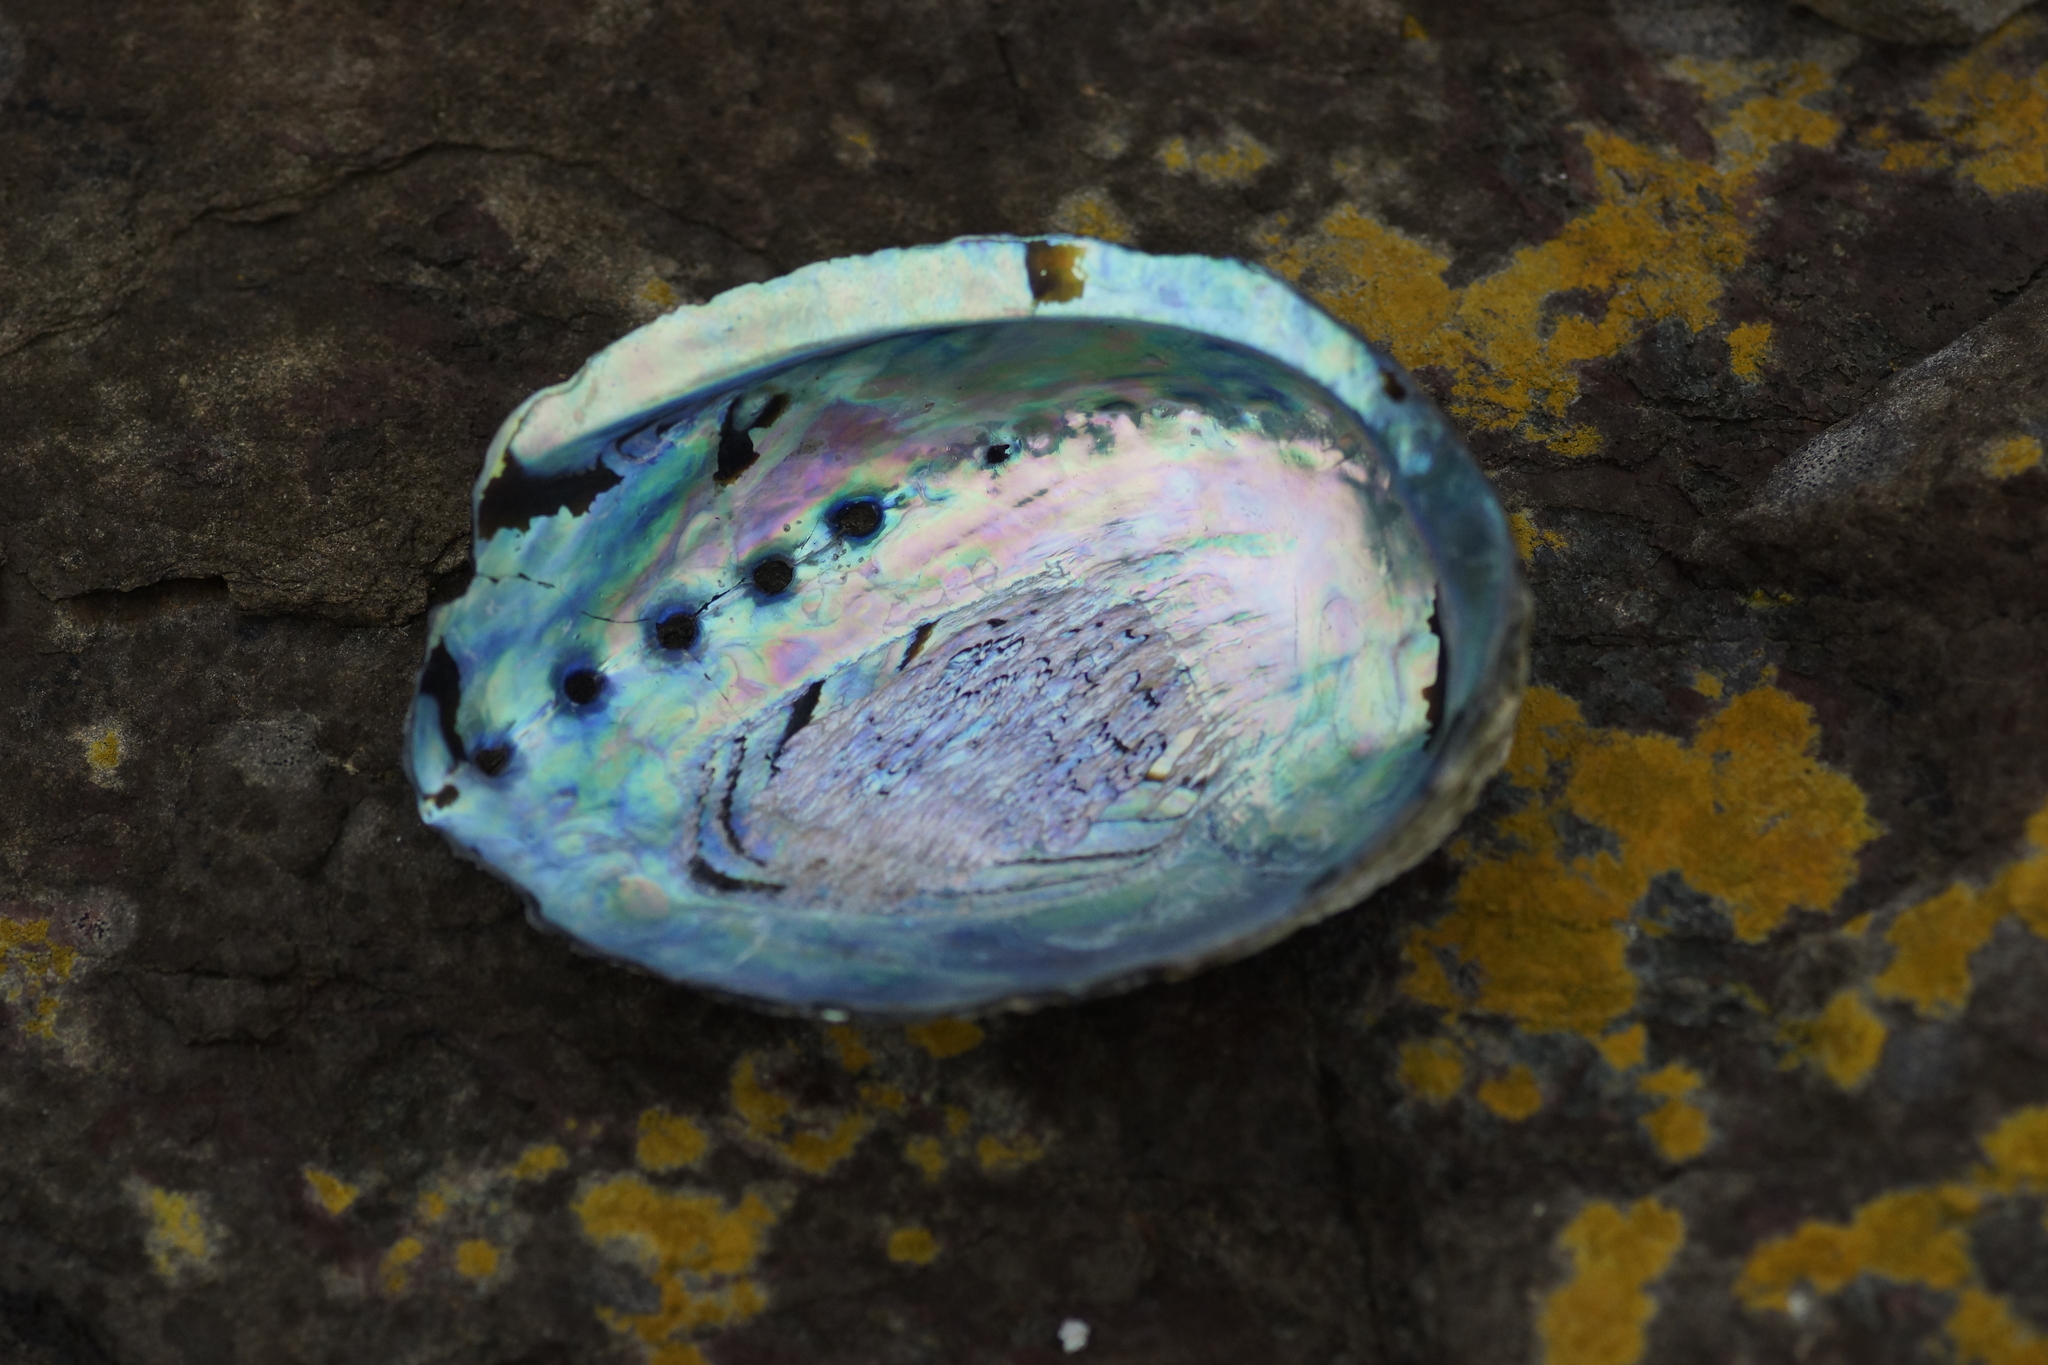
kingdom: Animalia
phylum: Mollusca
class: Gastropoda
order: Lepetellida
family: Haliotidae
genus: Haliotis
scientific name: Haliotis iris
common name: Abalone
